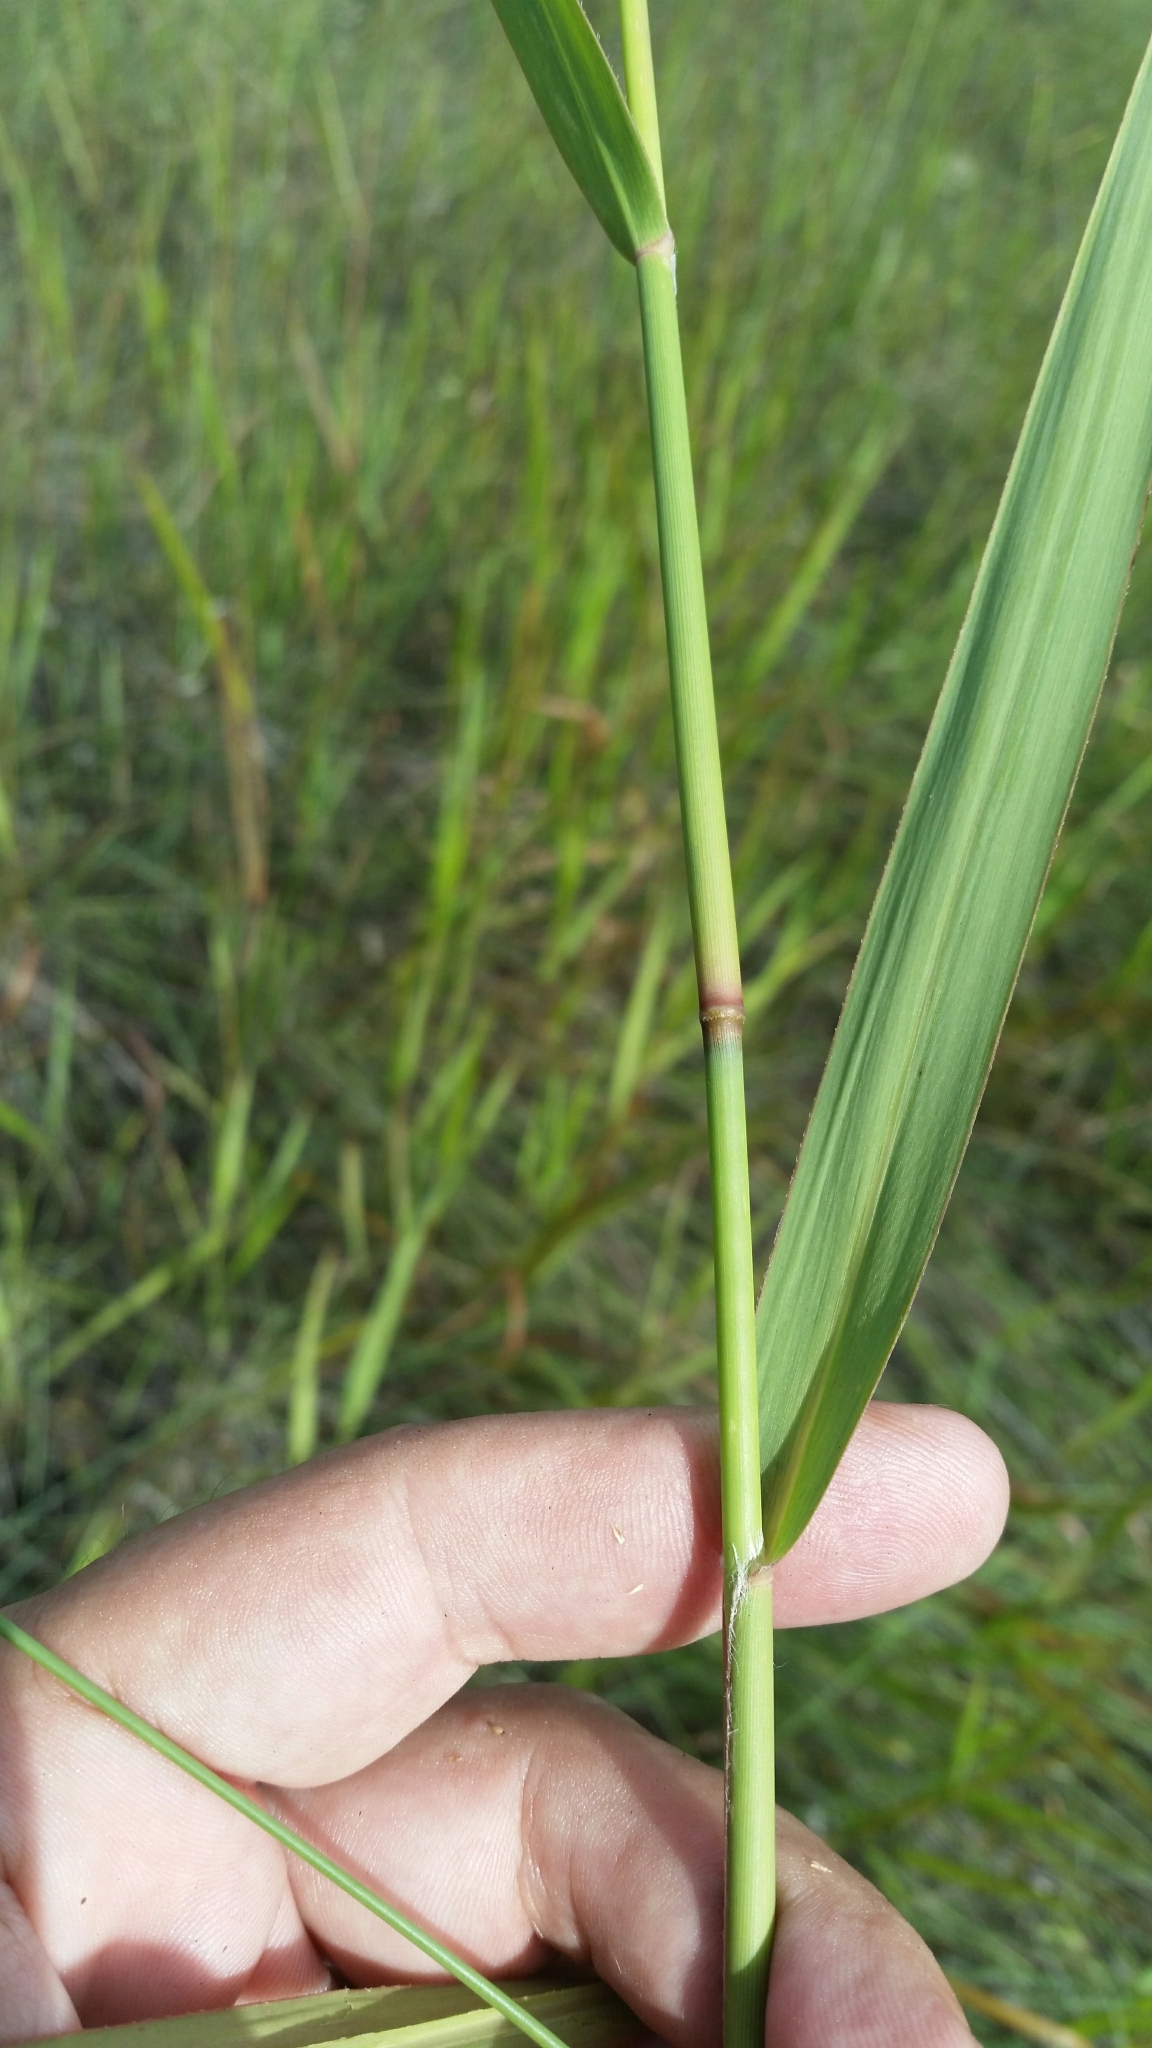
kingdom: Plantae
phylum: Tracheophyta
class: Liliopsida
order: Poales
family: Poaceae
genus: Panicum
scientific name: Panicum virgatum
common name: Switchgrass
